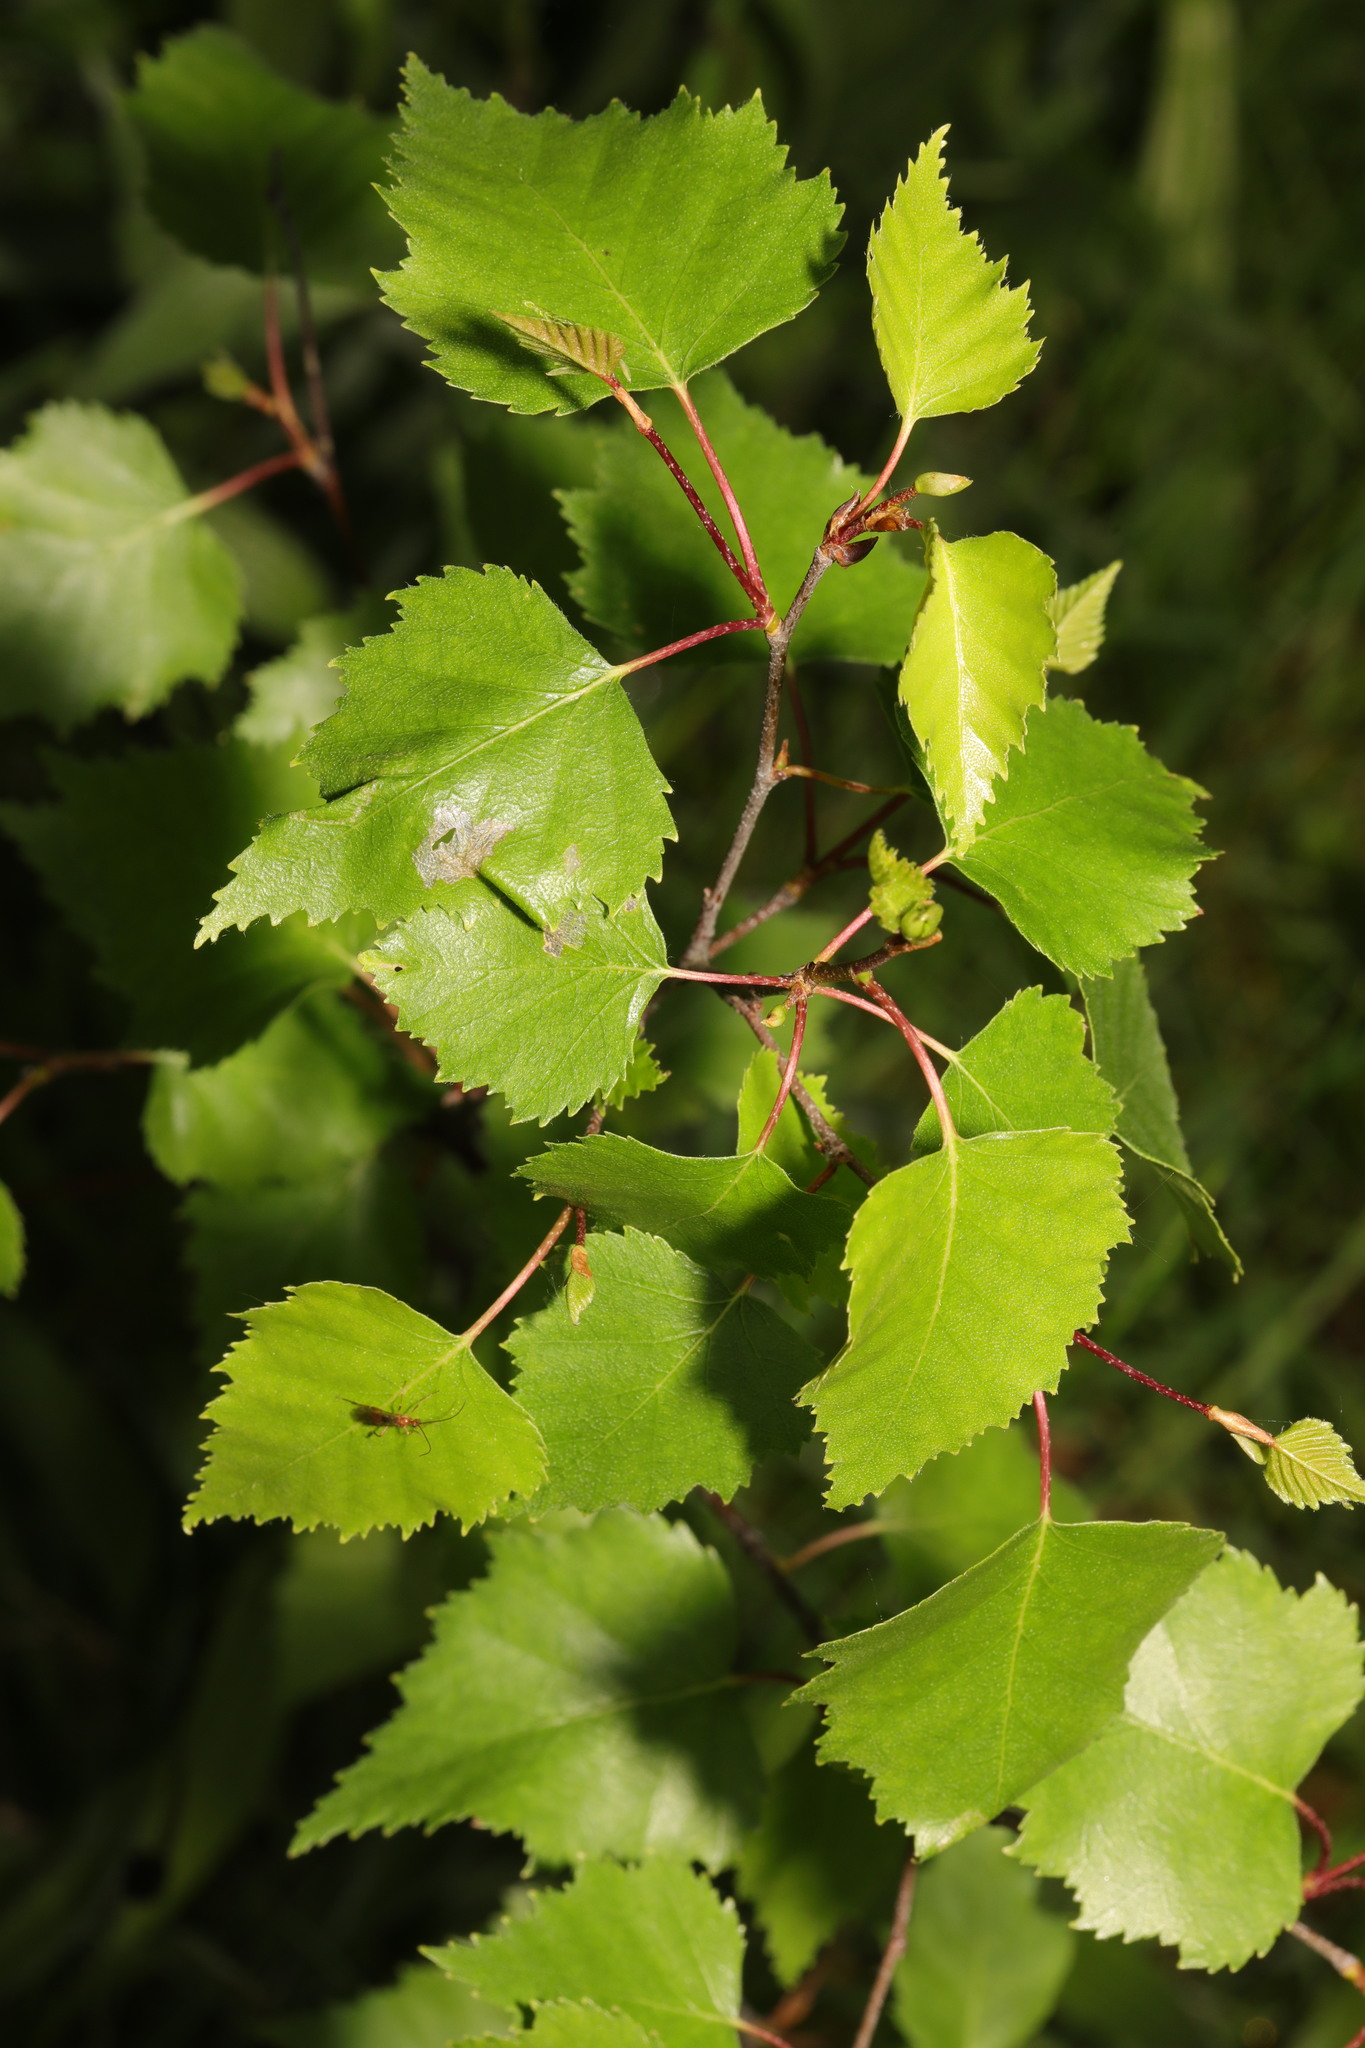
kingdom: Plantae
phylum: Tracheophyta
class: Magnoliopsida
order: Fagales
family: Betulaceae
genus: Betula
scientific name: Betula pendula
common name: Silver birch
